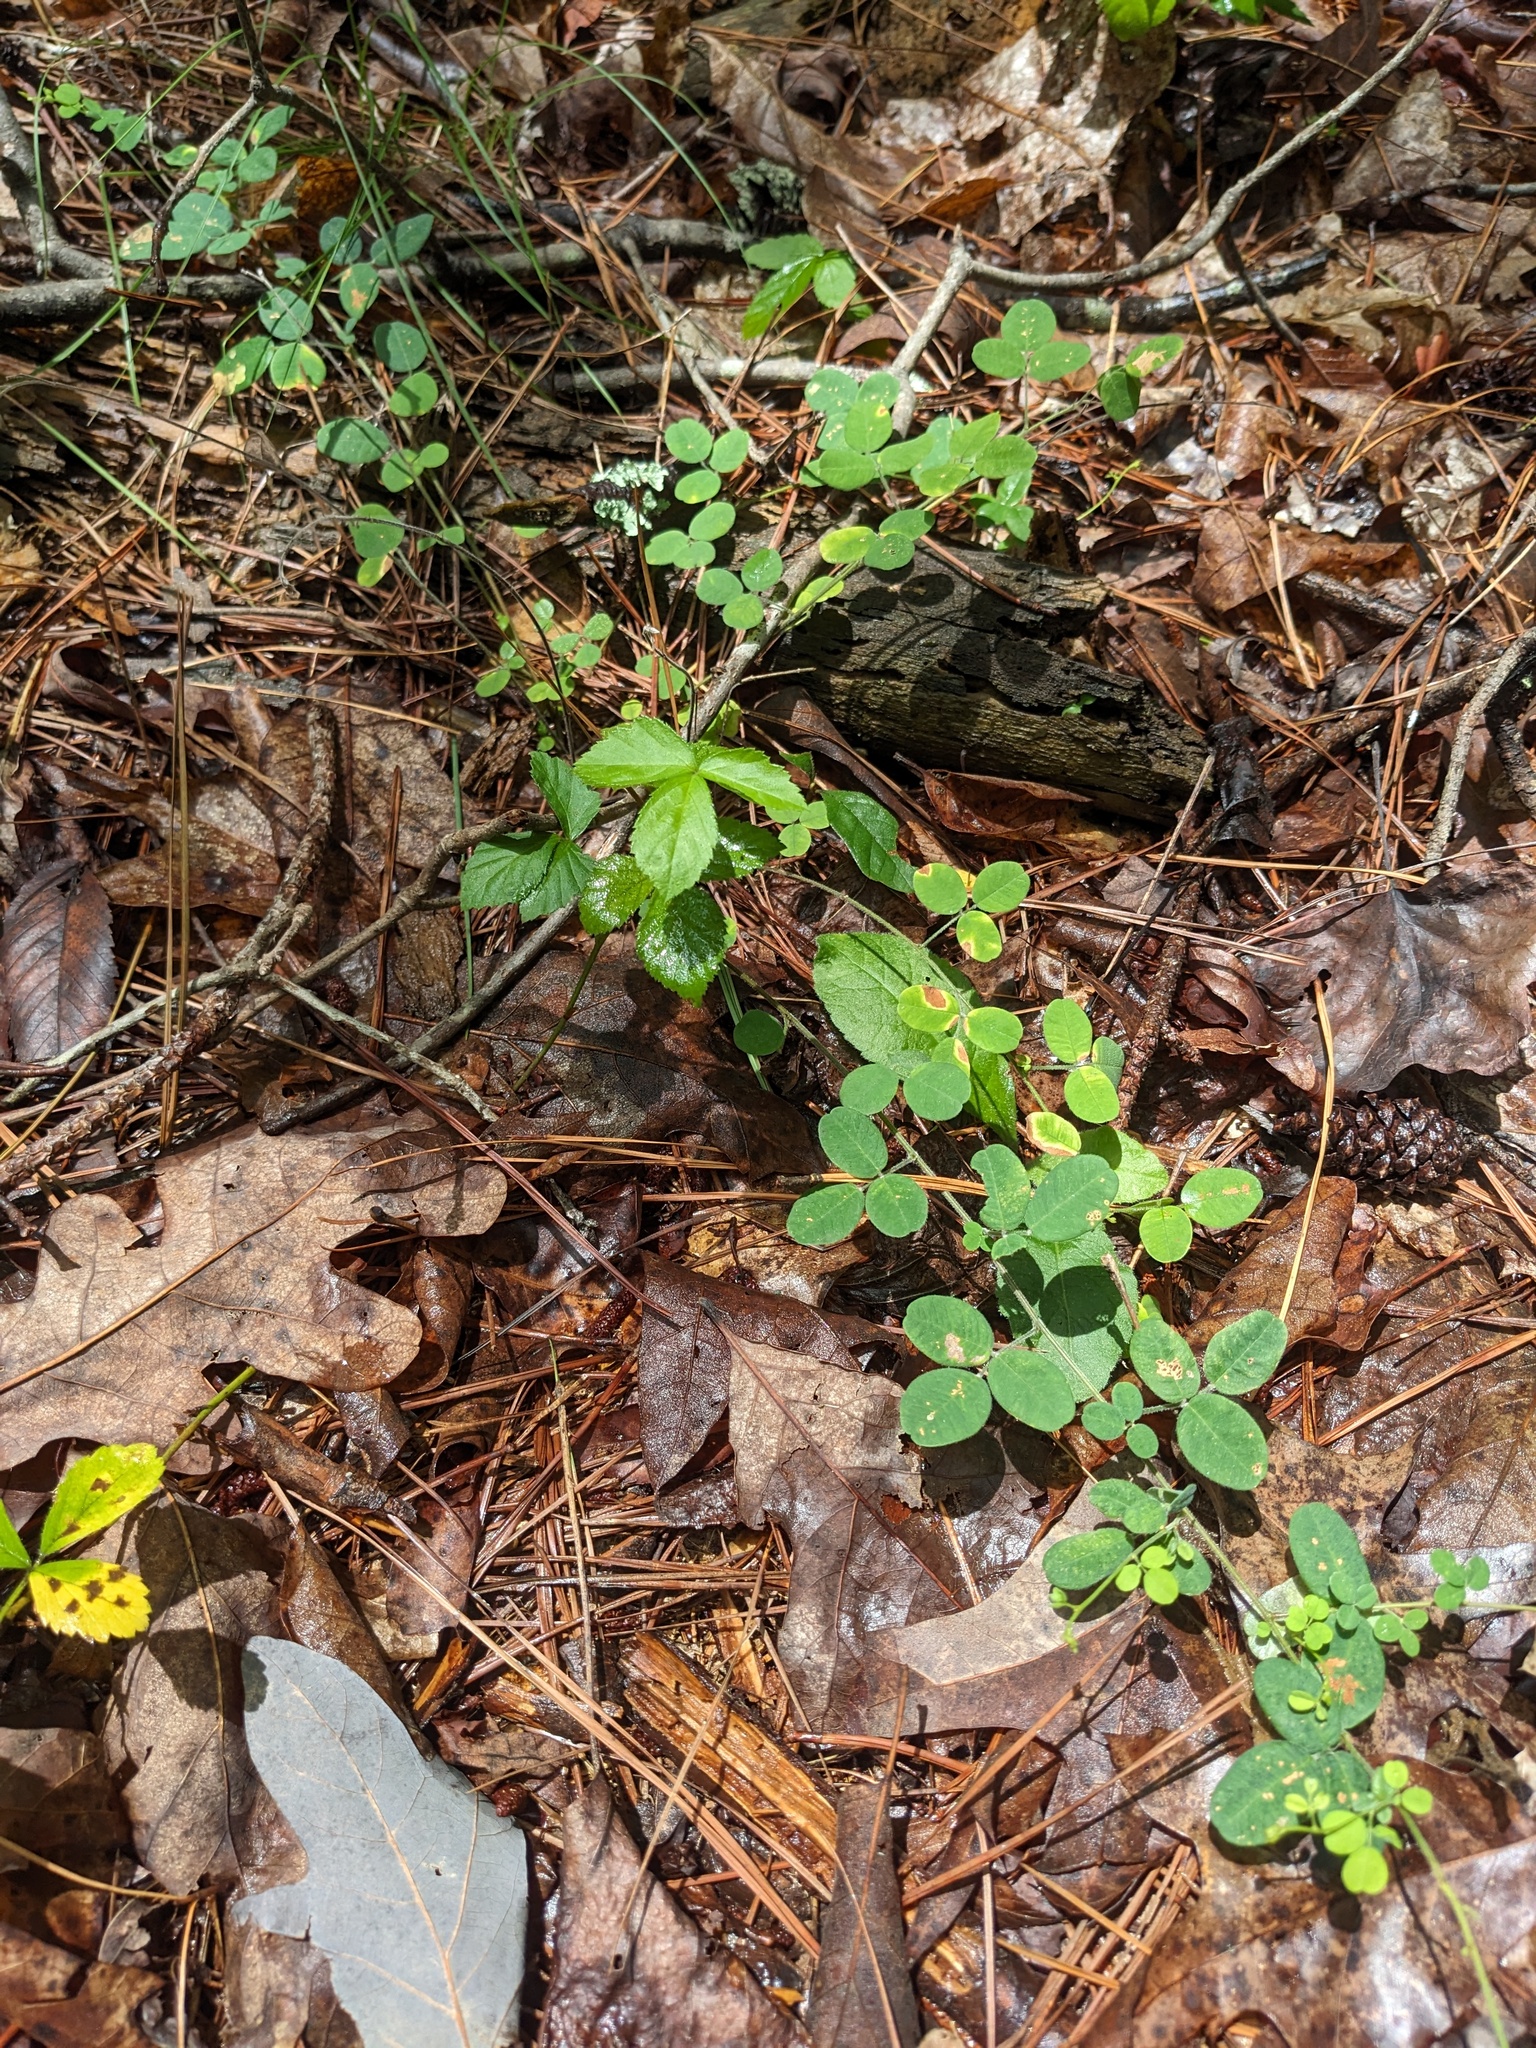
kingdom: Plantae
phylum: Tracheophyta
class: Magnoliopsida
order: Fabales
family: Fabaceae
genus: Lespedeza
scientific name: Lespedeza procumbens
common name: Downy trailing bush-clover
